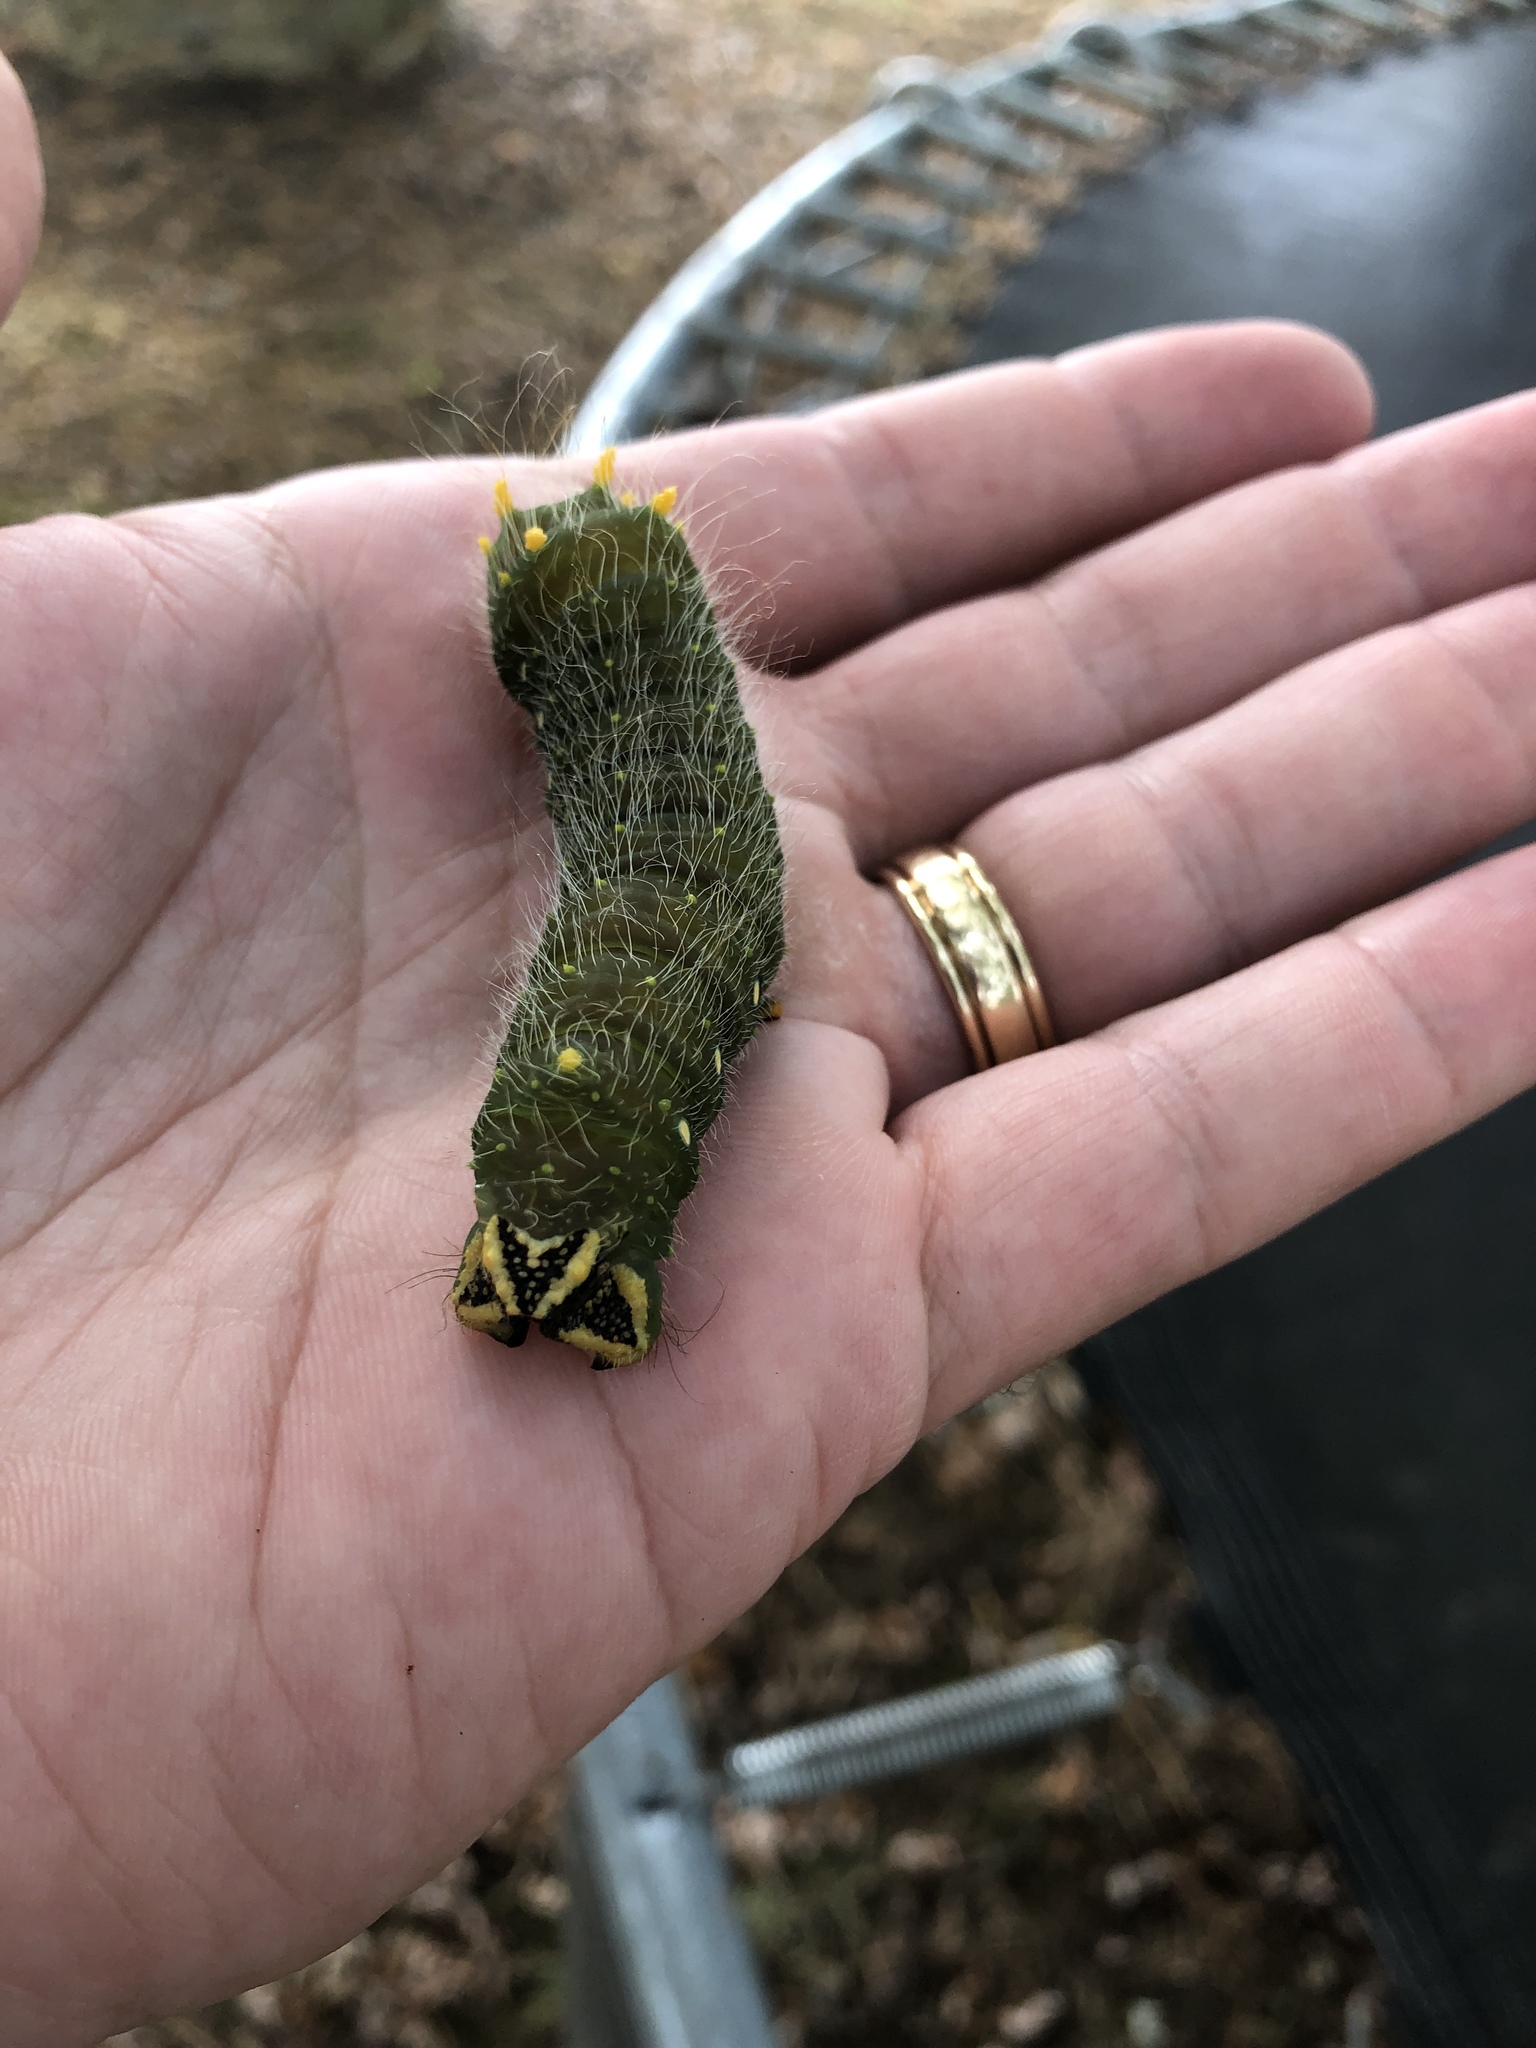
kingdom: Animalia
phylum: Arthropoda
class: Insecta
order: Lepidoptera
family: Saturniidae
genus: Eacles
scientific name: Eacles imperialis
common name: Imperial moth
